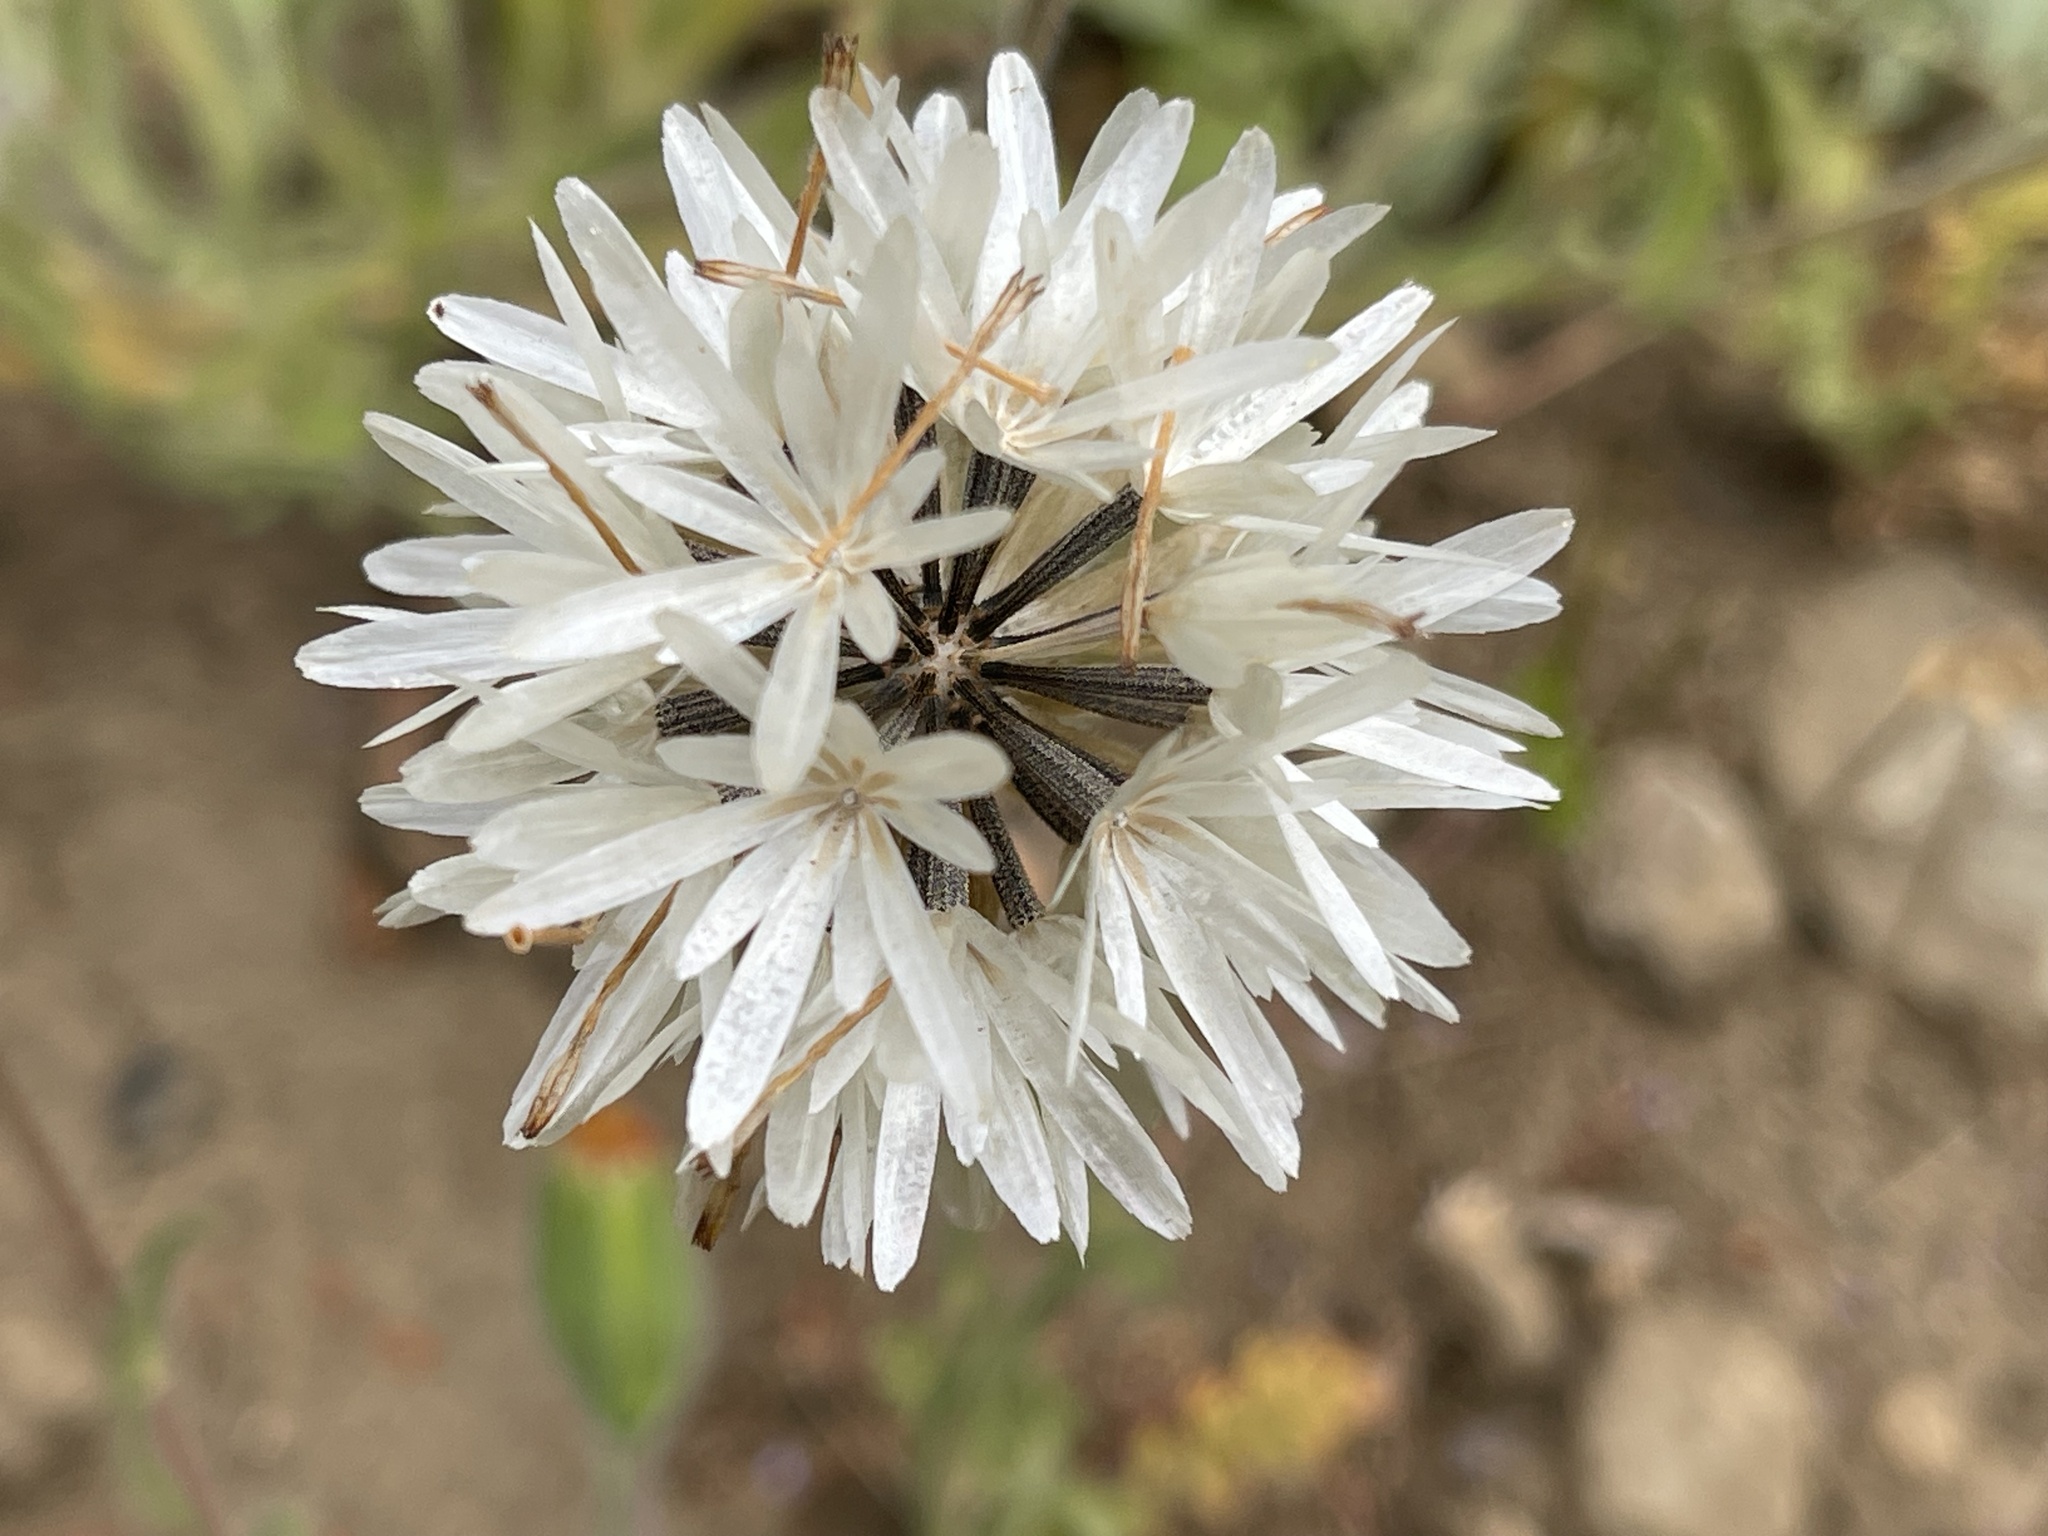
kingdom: Plantae
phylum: Tracheophyta
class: Magnoliopsida
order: Asterales
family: Asteraceae
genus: Achyrachaena
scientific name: Achyrachaena mollis
